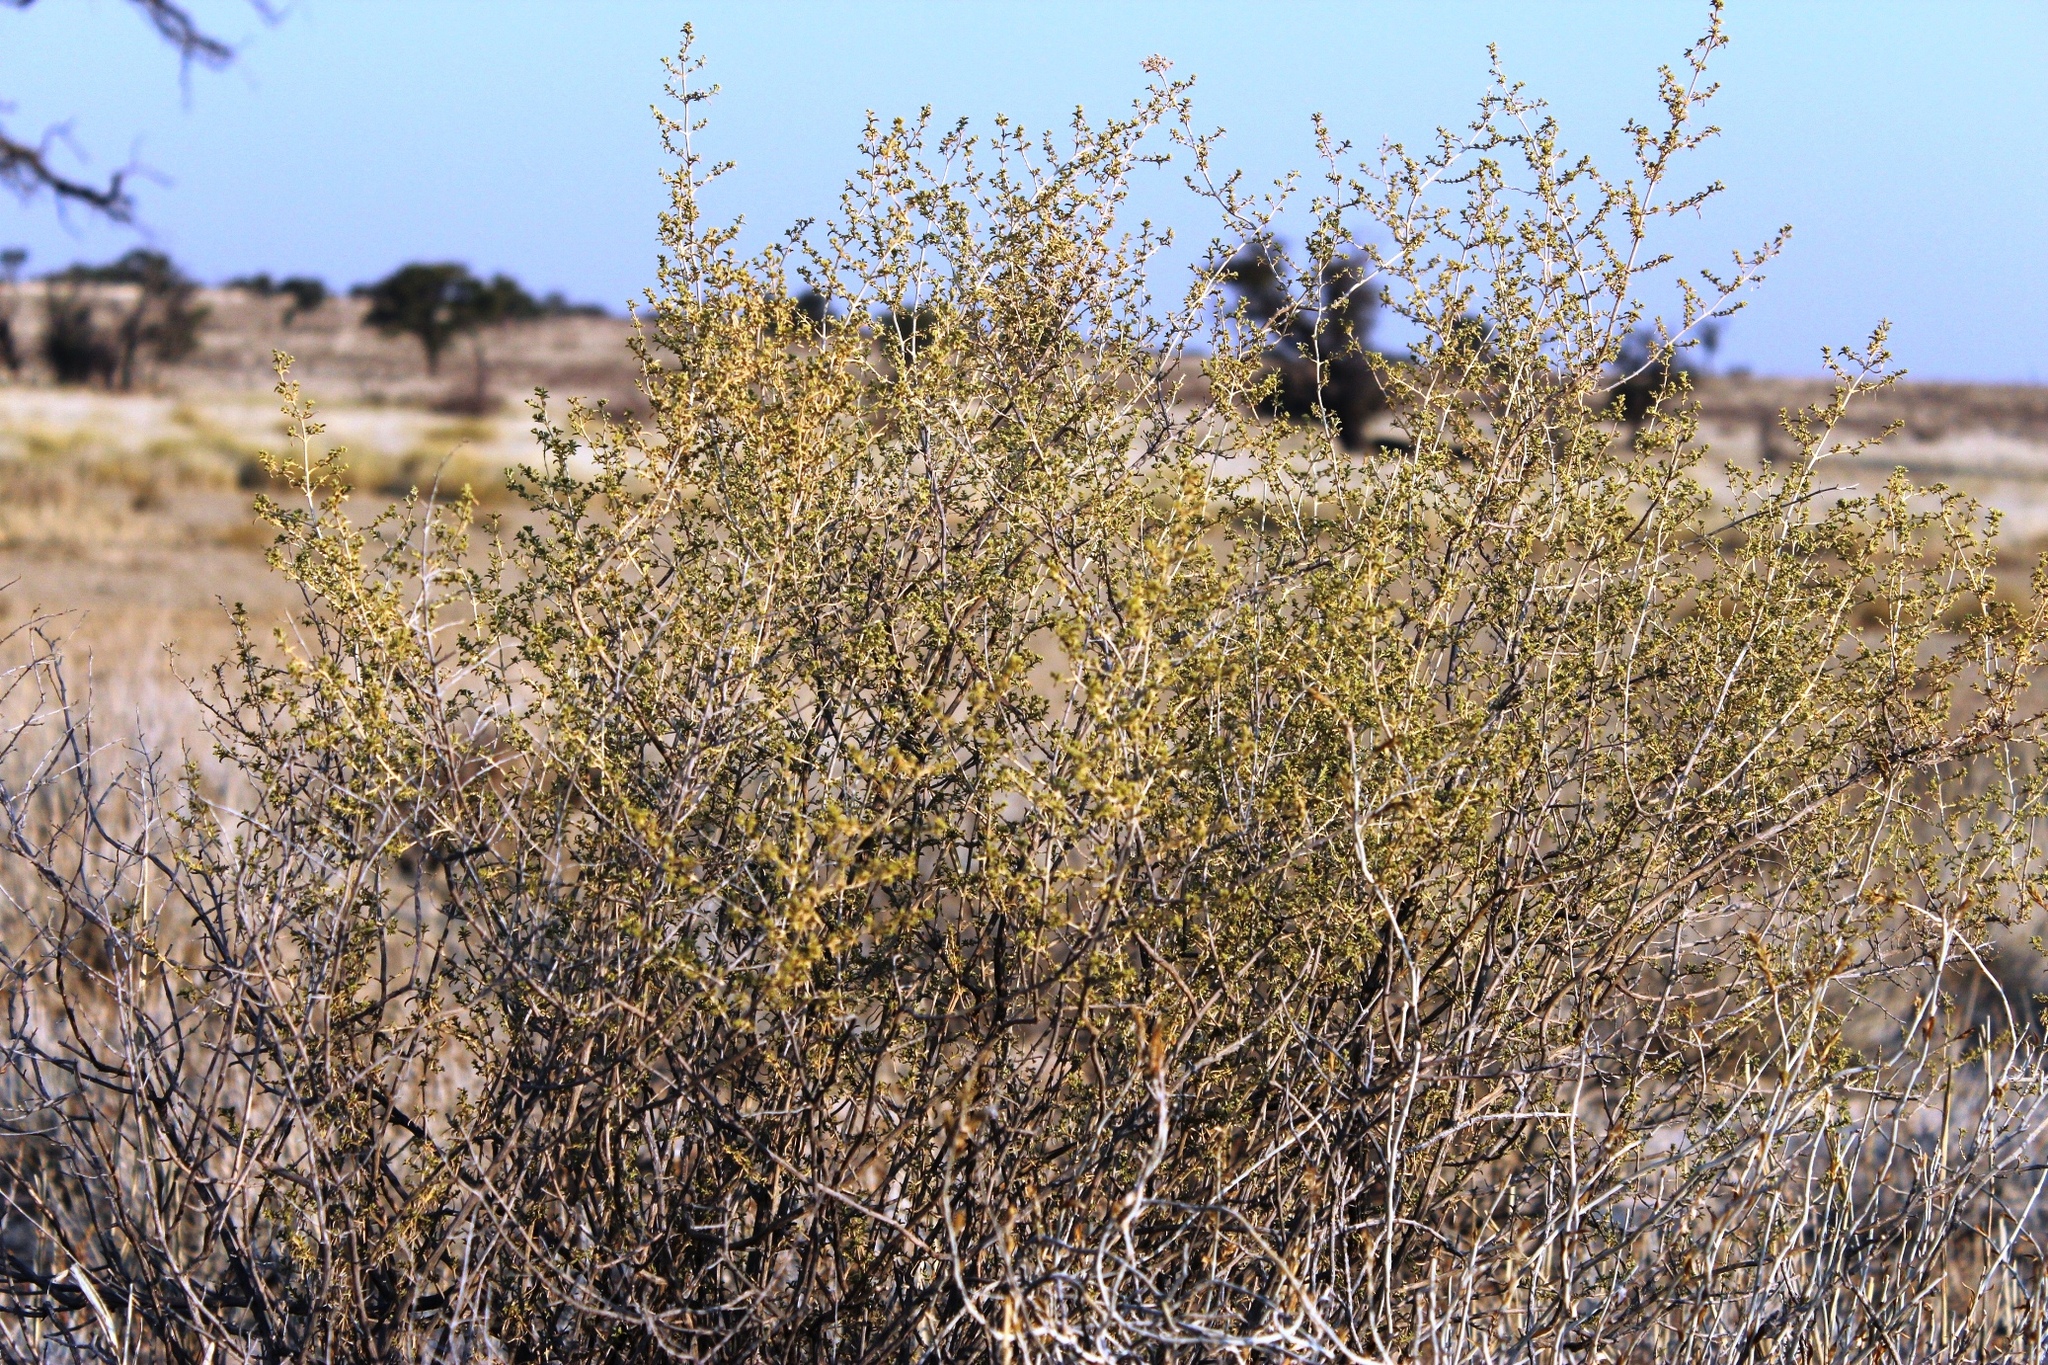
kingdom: Plantae
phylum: Tracheophyta
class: Magnoliopsida
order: Caryophyllales
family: Aizoaceae
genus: Aizoon
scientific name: Aizoon africanum
